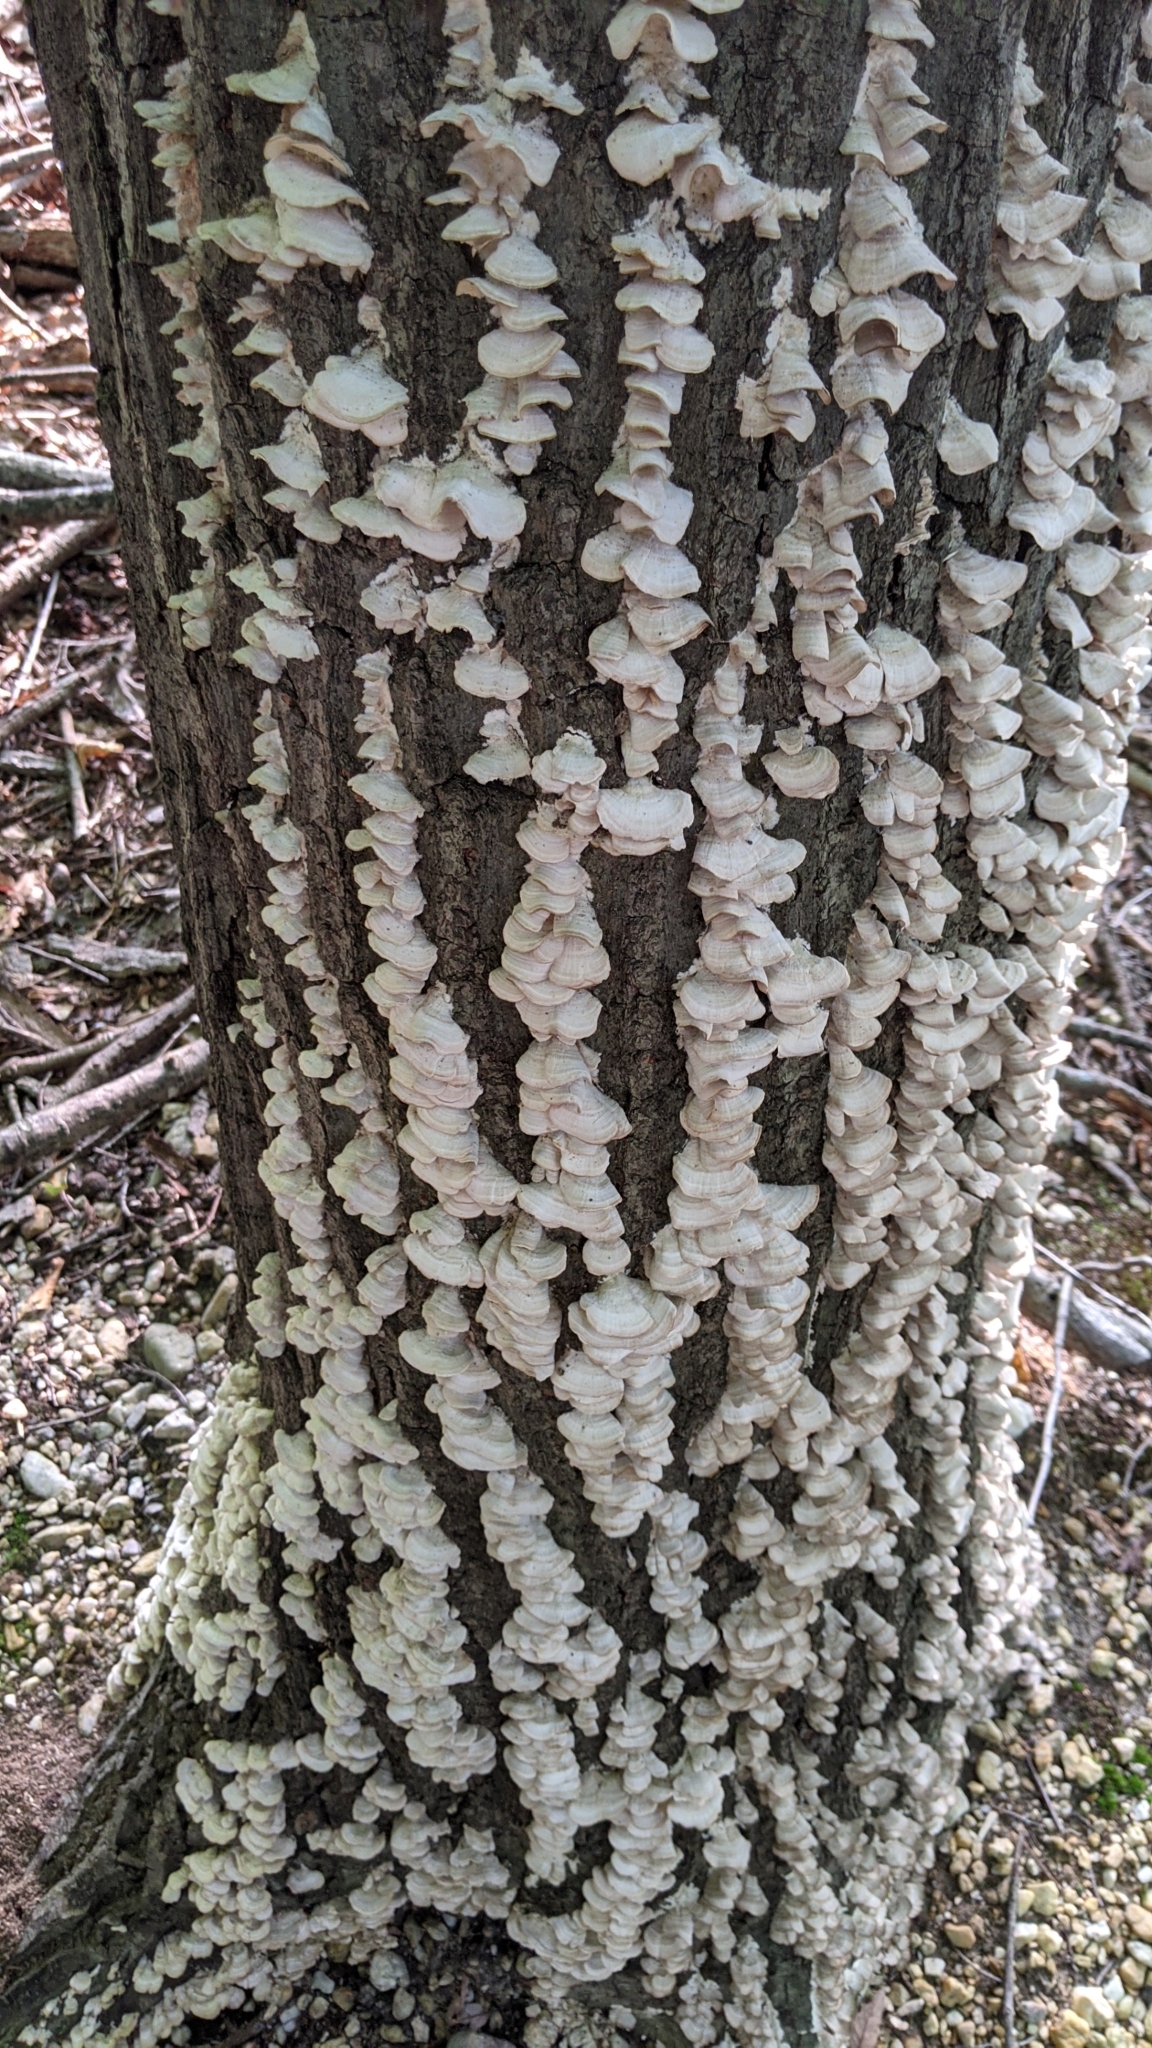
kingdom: Fungi
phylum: Basidiomycota
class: Agaricomycetes
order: Hymenochaetales
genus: Trichaptum
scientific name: Trichaptum biforme
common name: Violet-toothed polypore
